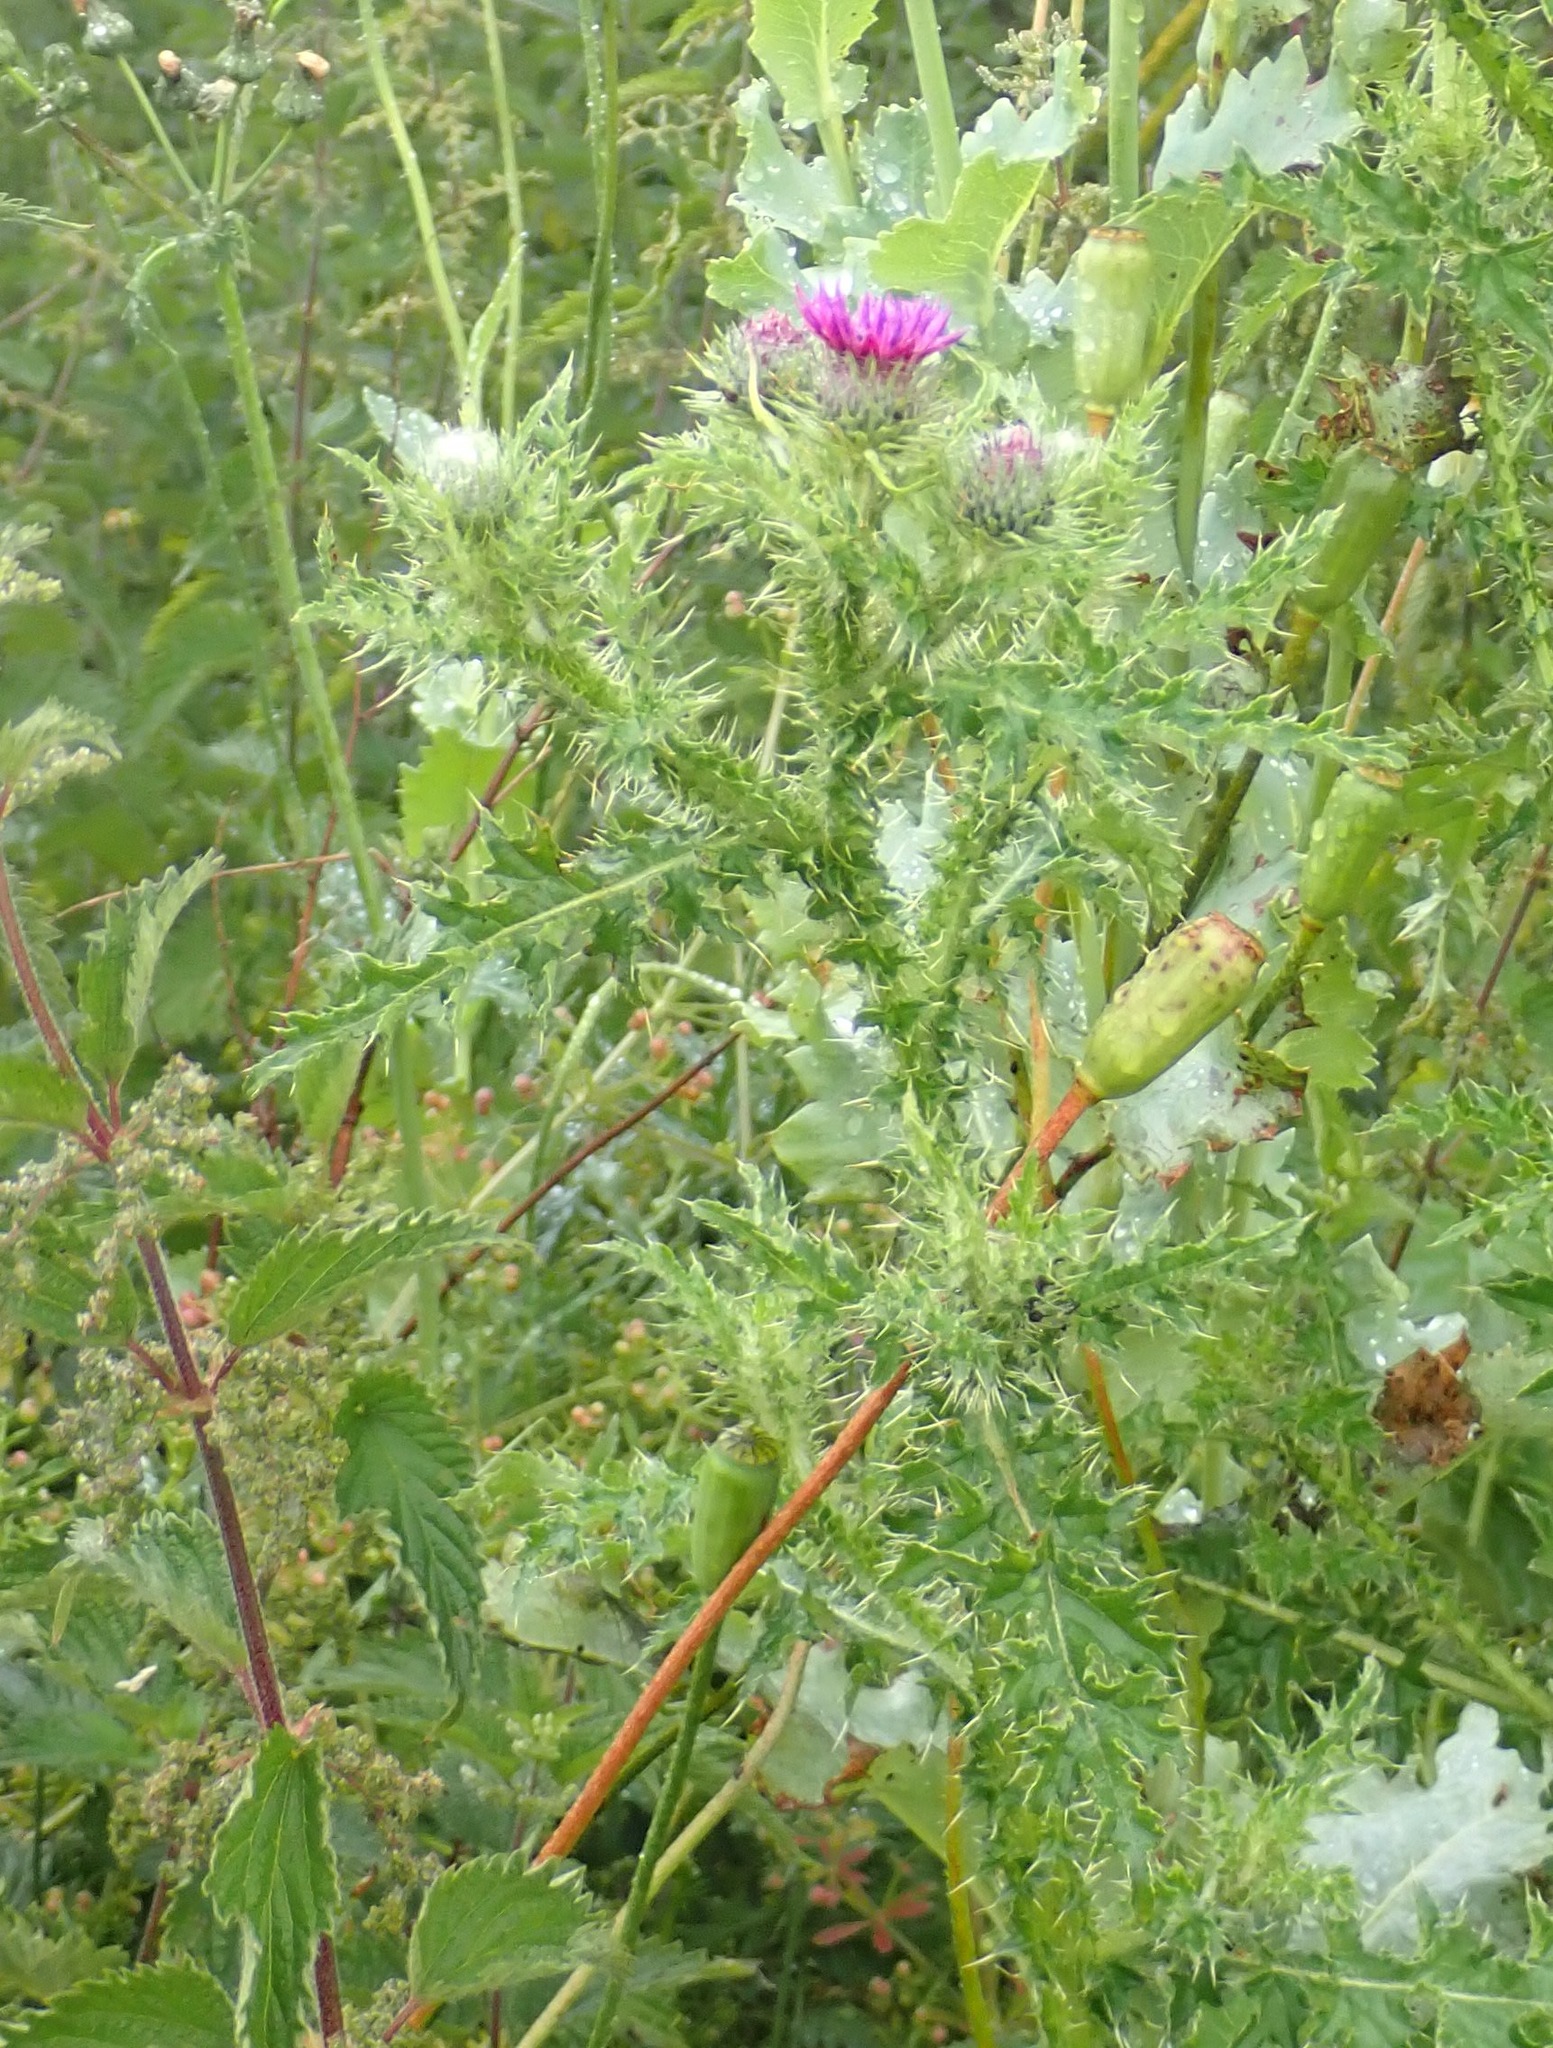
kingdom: Plantae
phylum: Tracheophyta
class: Magnoliopsida
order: Asterales
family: Asteraceae
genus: Carduus
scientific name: Carduus crispus
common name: Welted thistle
